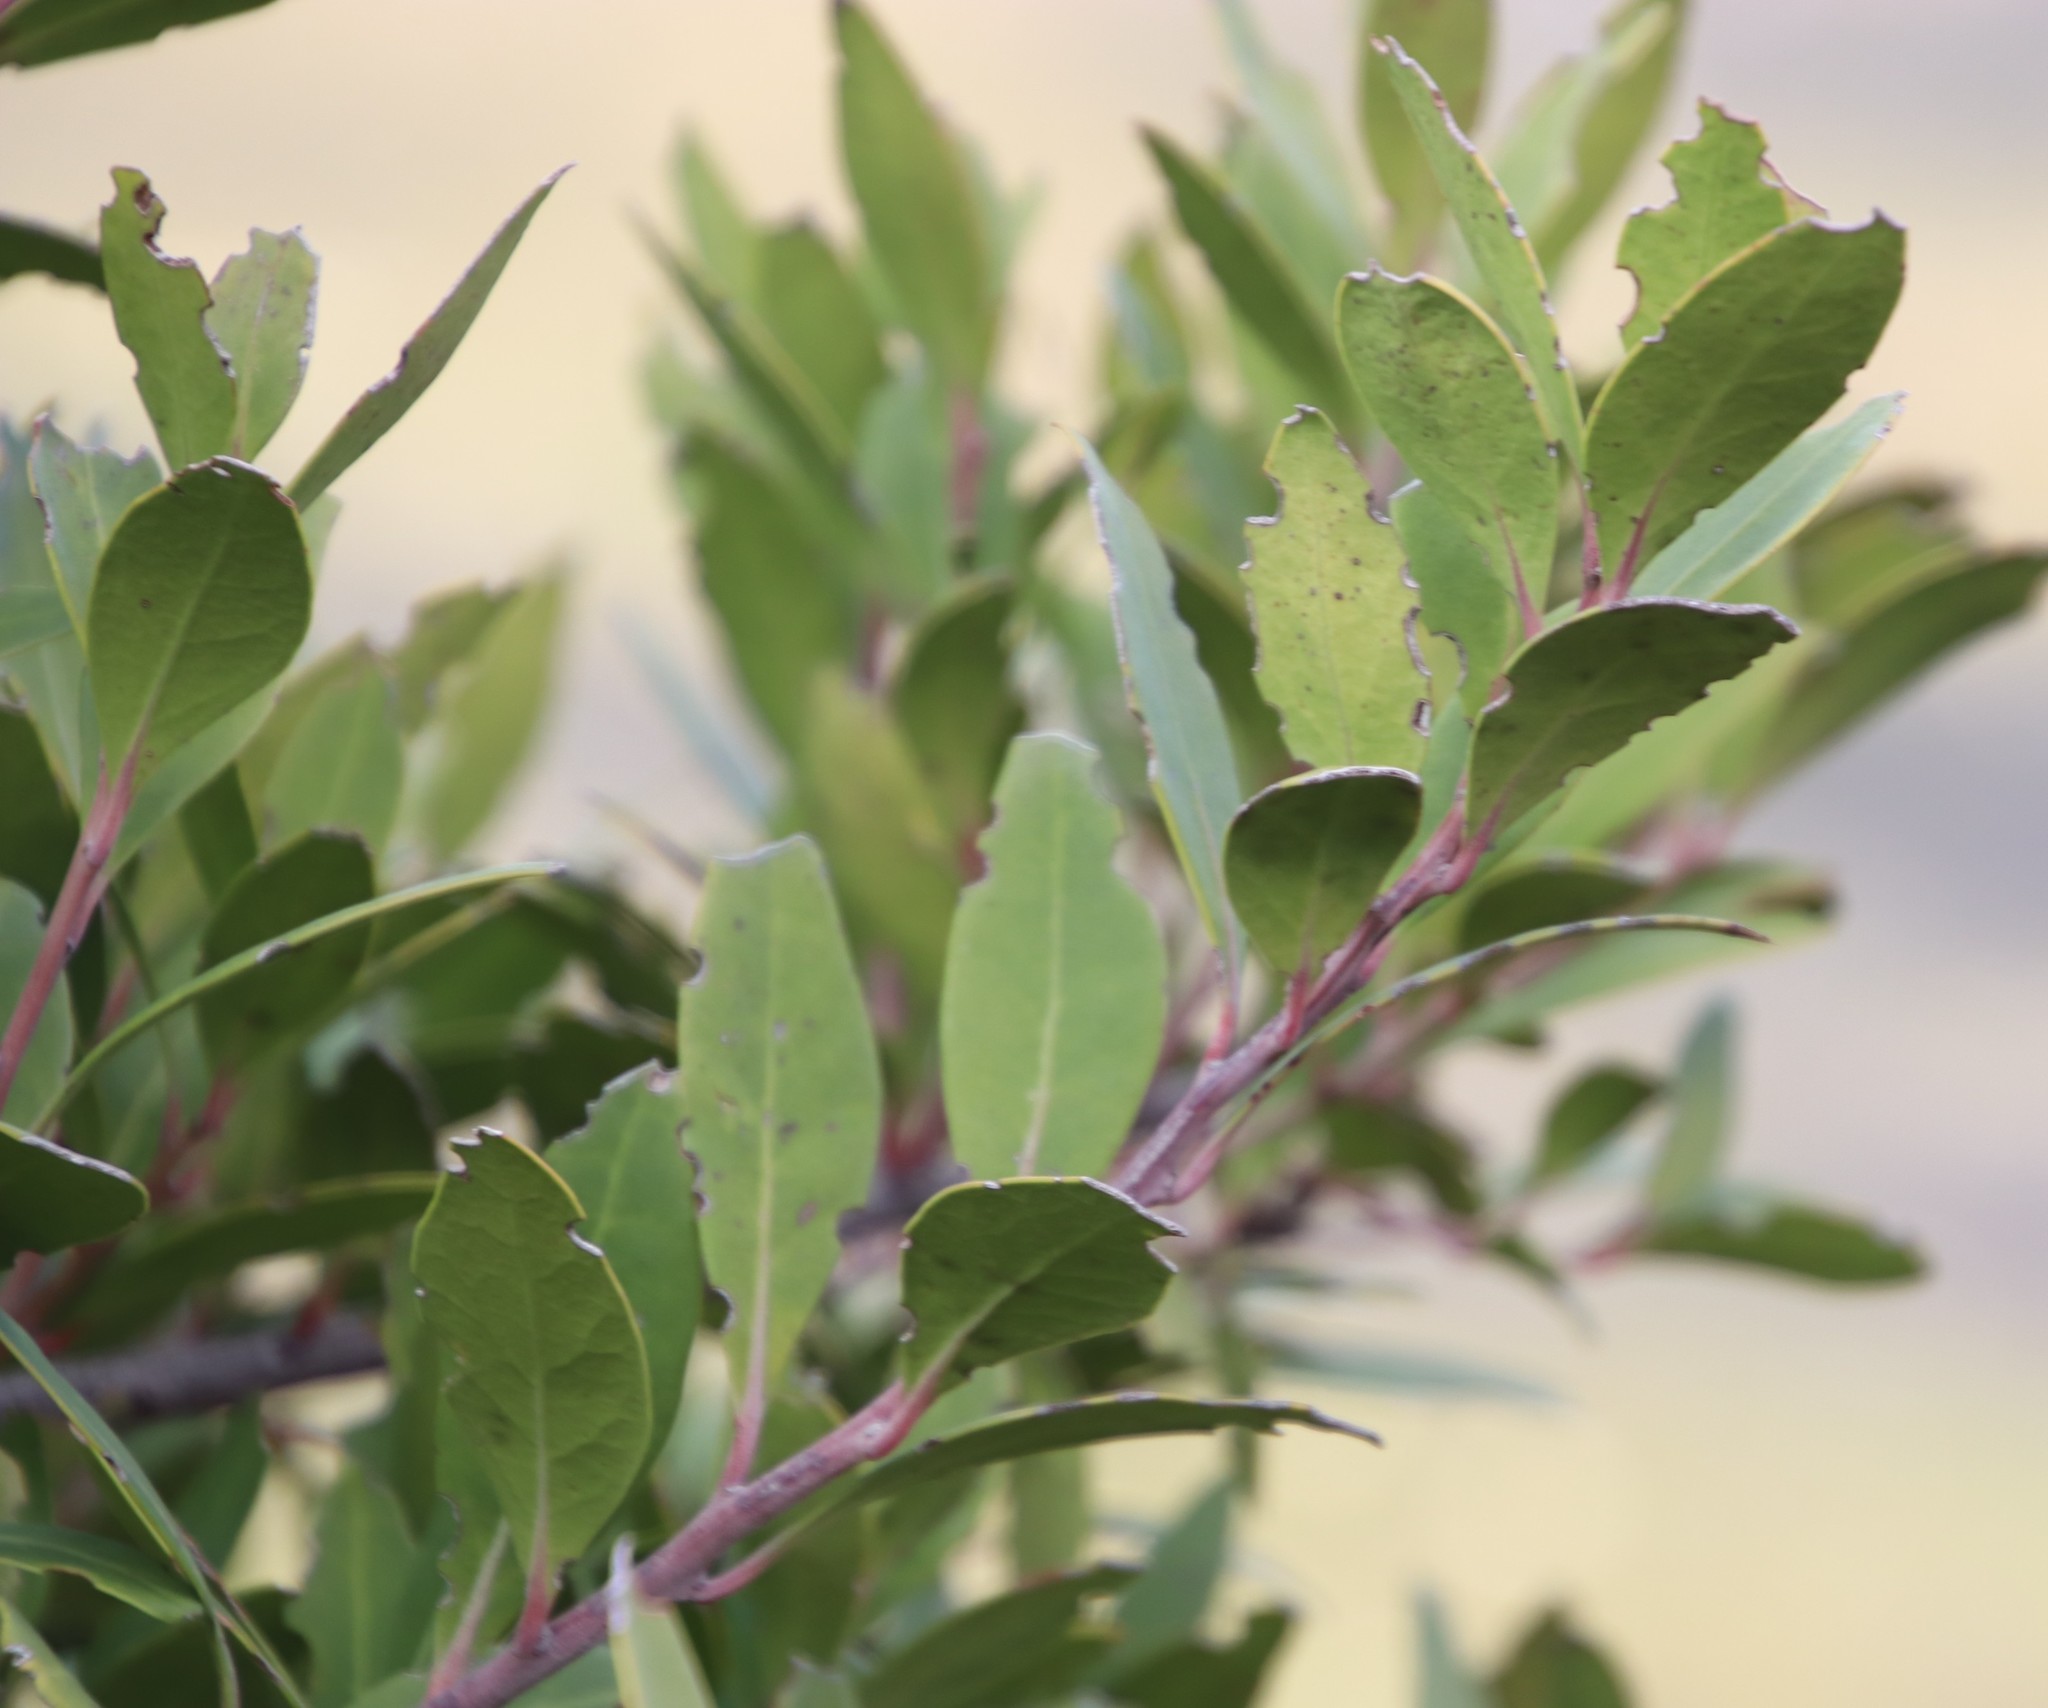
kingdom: Plantae
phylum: Tracheophyta
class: Magnoliopsida
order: Celastrales
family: Celastraceae
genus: Gymnosporia
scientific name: Gymnosporia laurina
